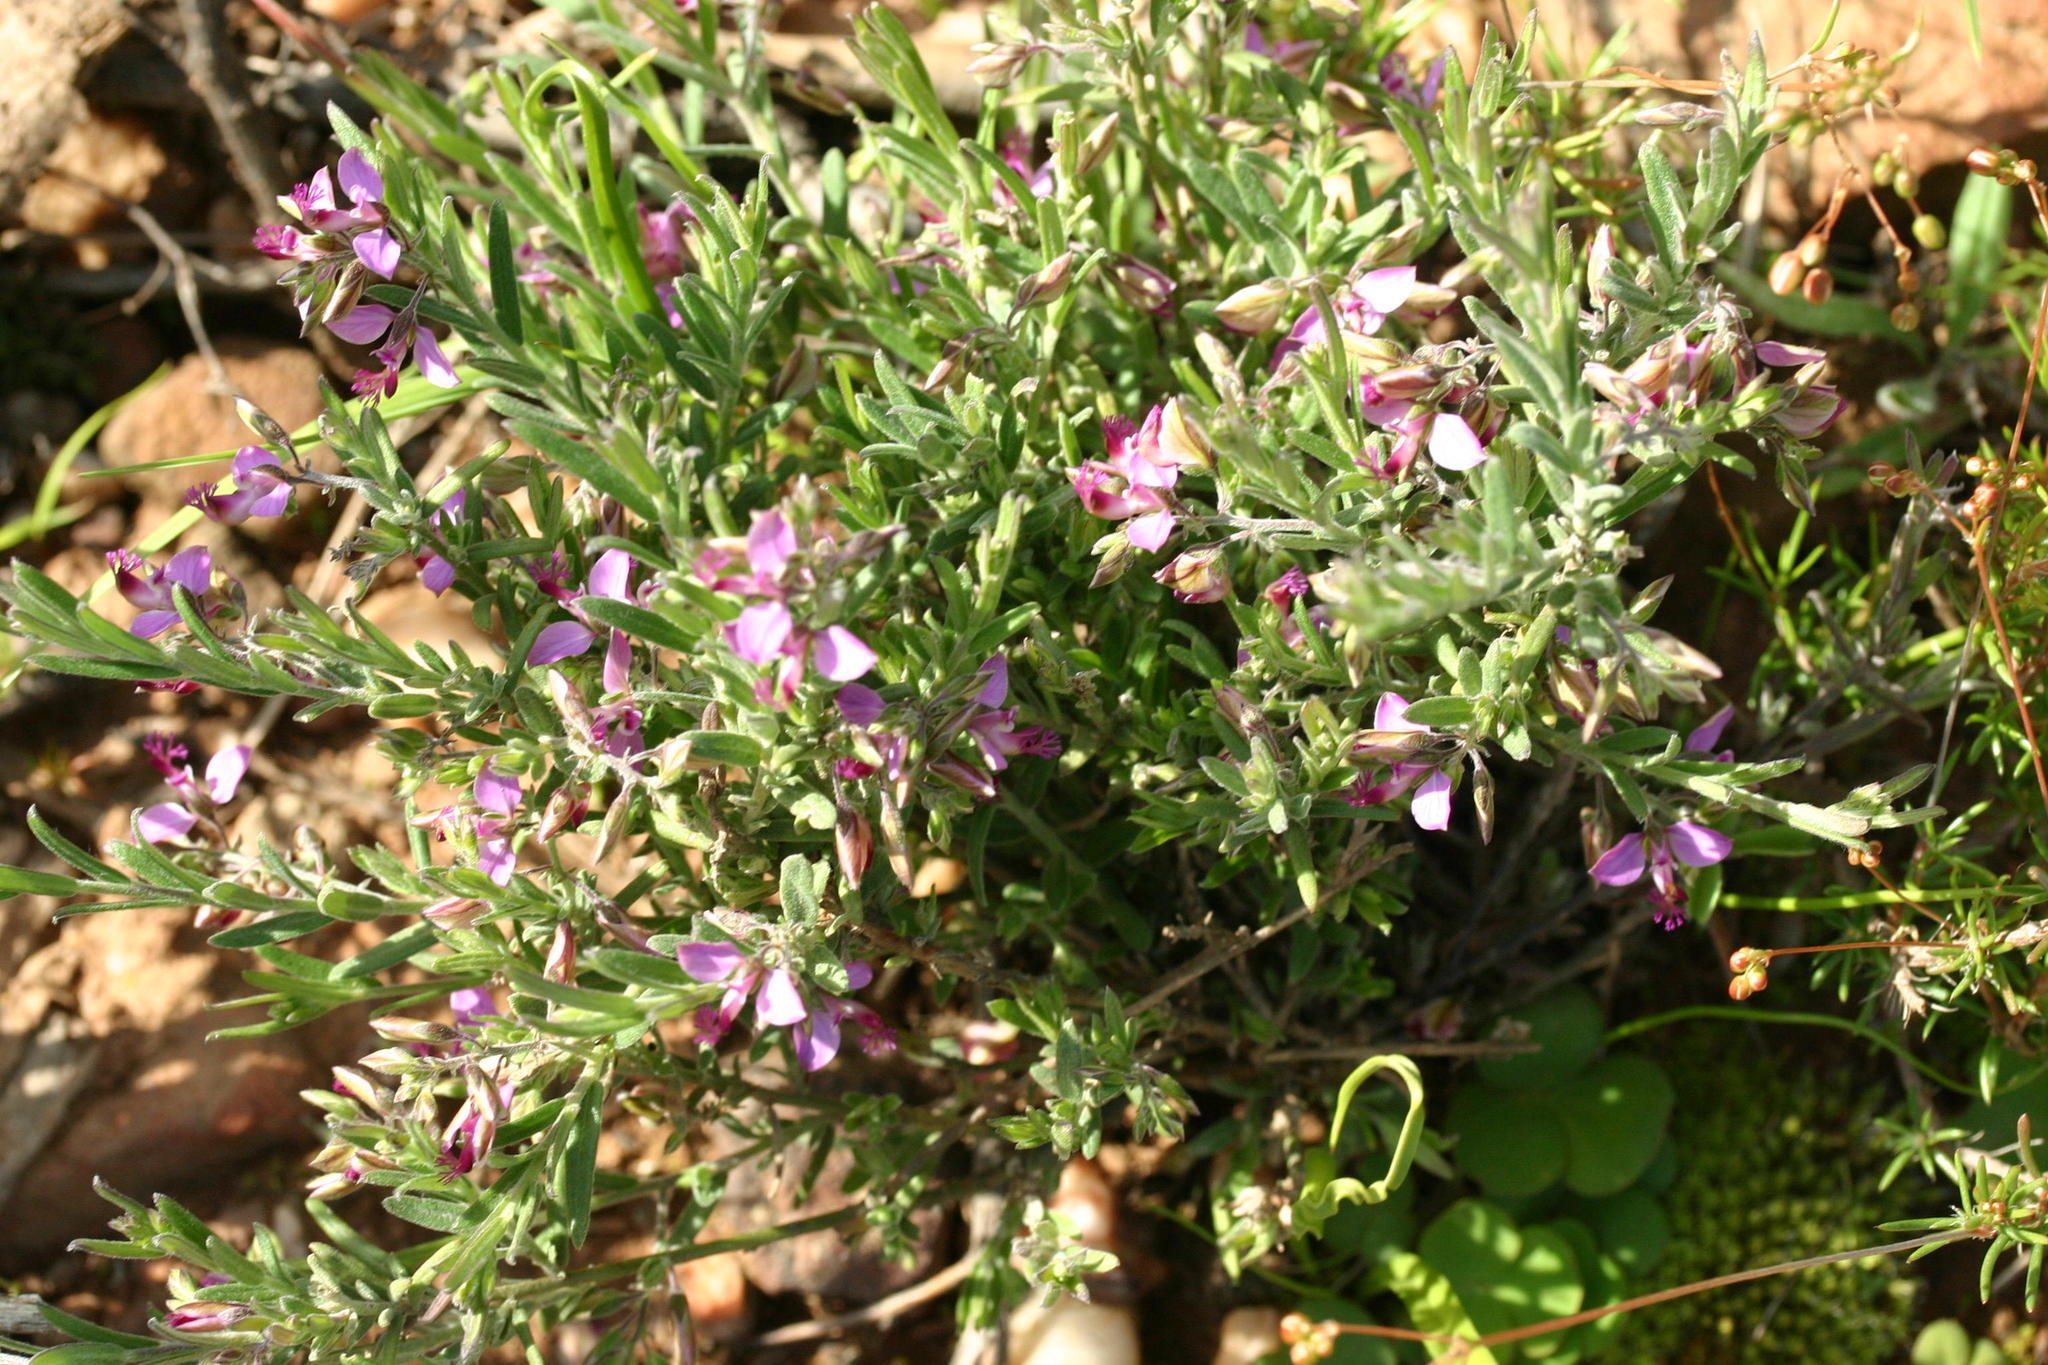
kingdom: Plantae
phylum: Tracheophyta
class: Magnoliopsida
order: Fabales
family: Polygalaceae
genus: Polygala
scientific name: Polygala scabra
